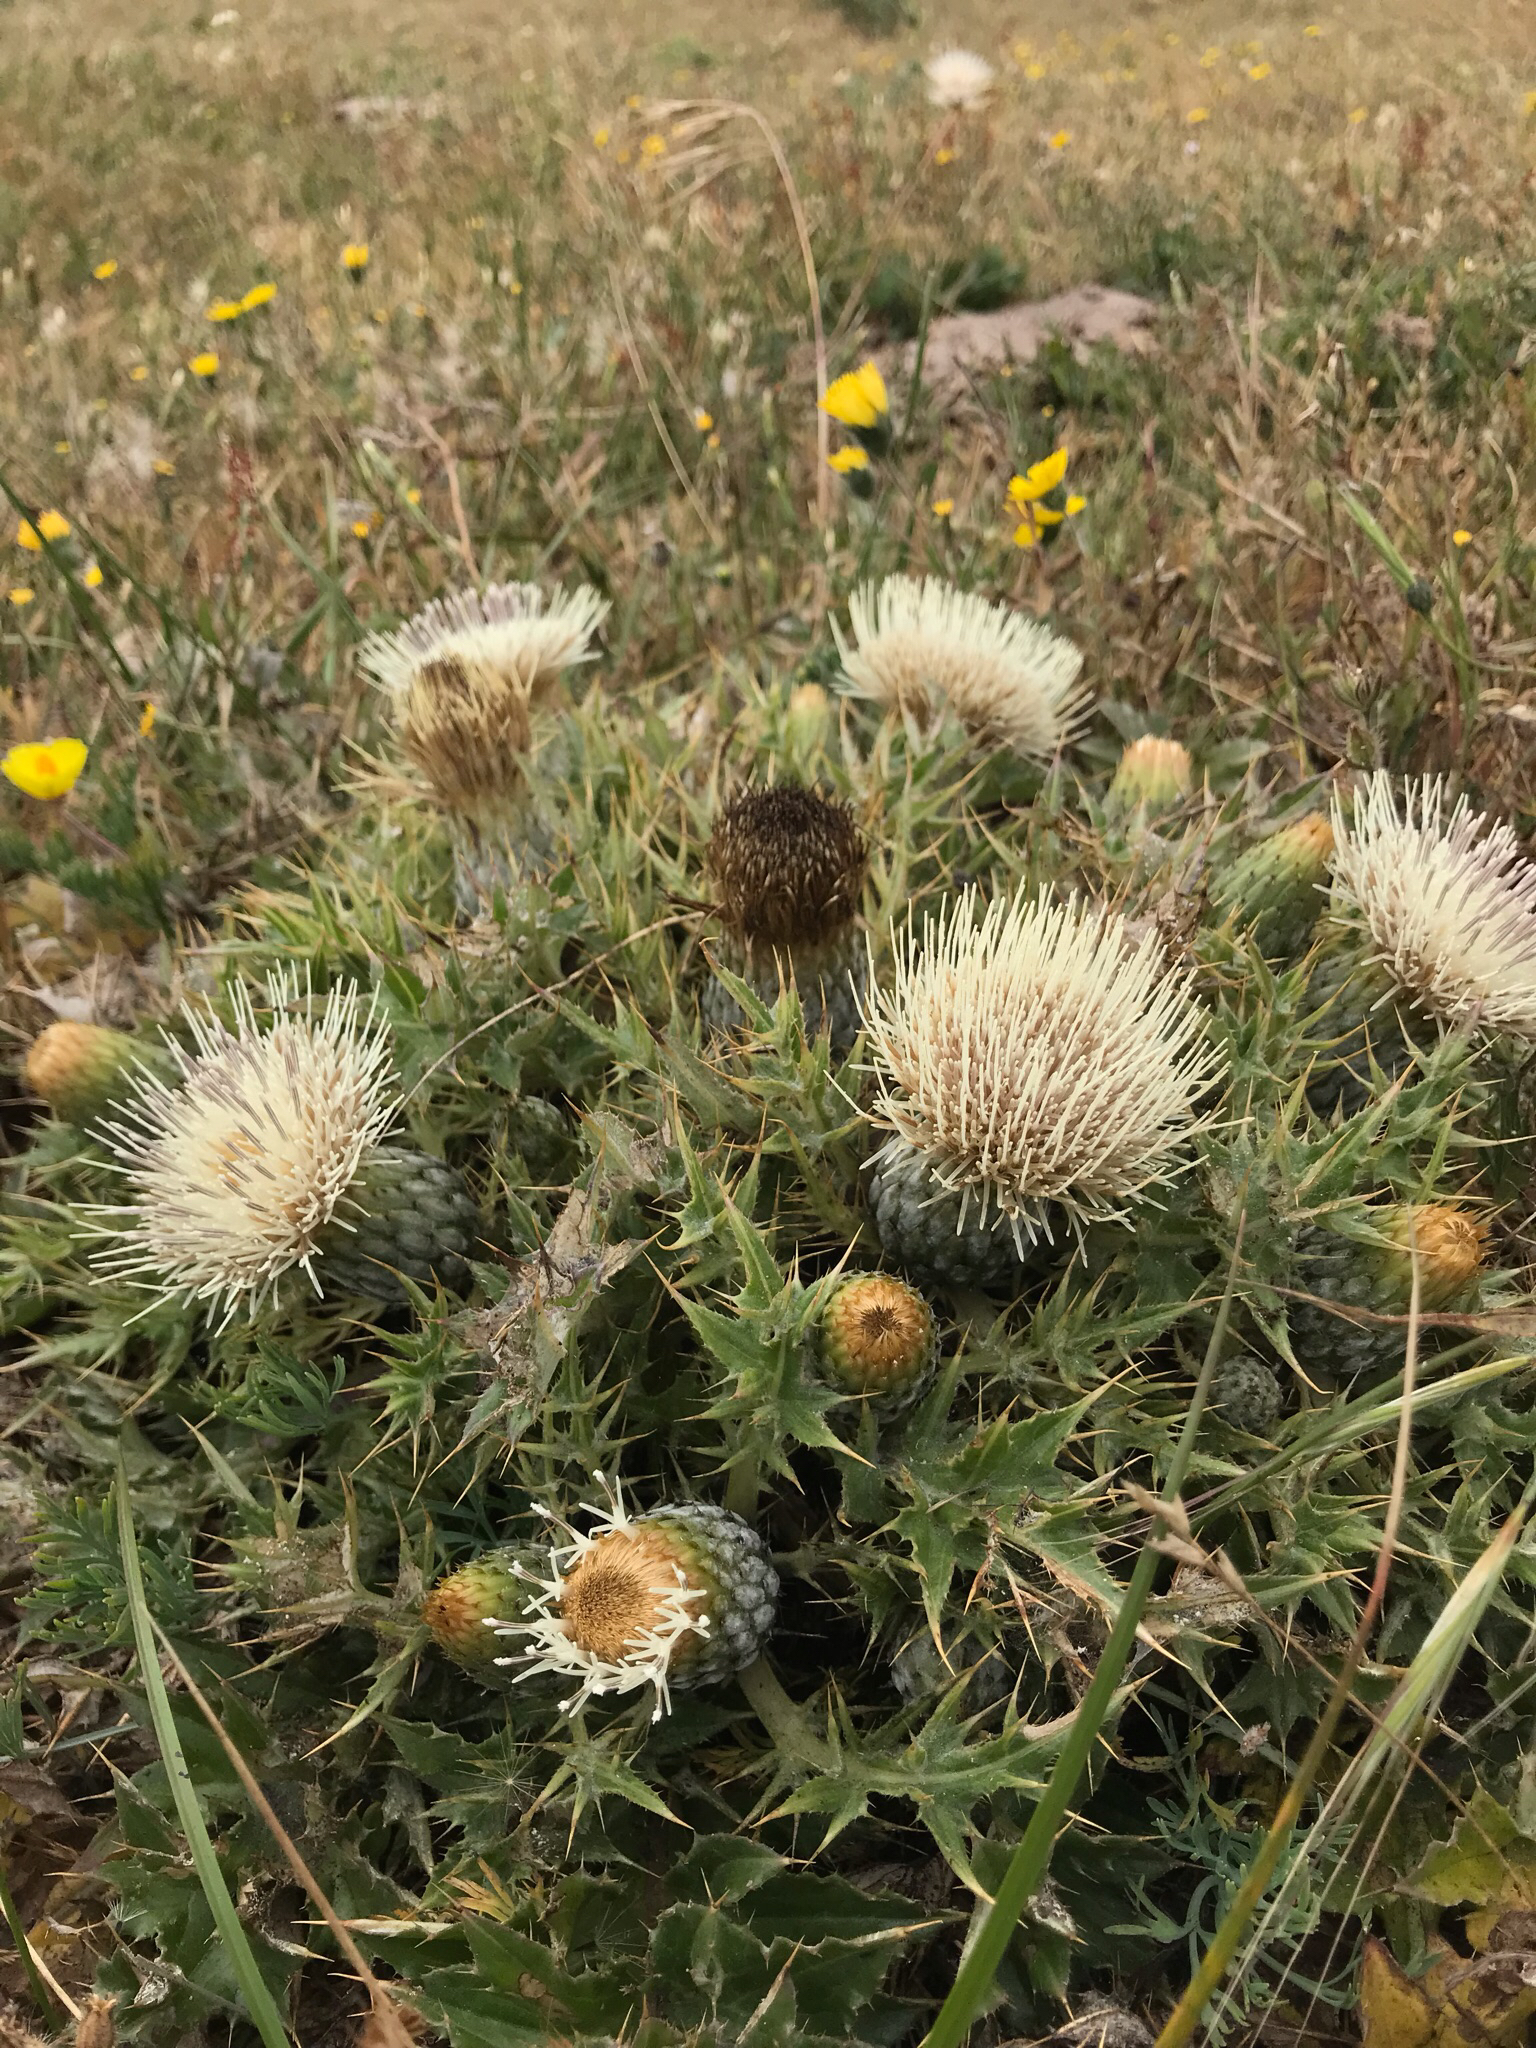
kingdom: Plantae
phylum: Tracheophyta
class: Magnoliopsida
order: Asterales
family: Asteraceae
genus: Cirsium
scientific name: Cirsium quercetorum
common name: Alameda county thistle
